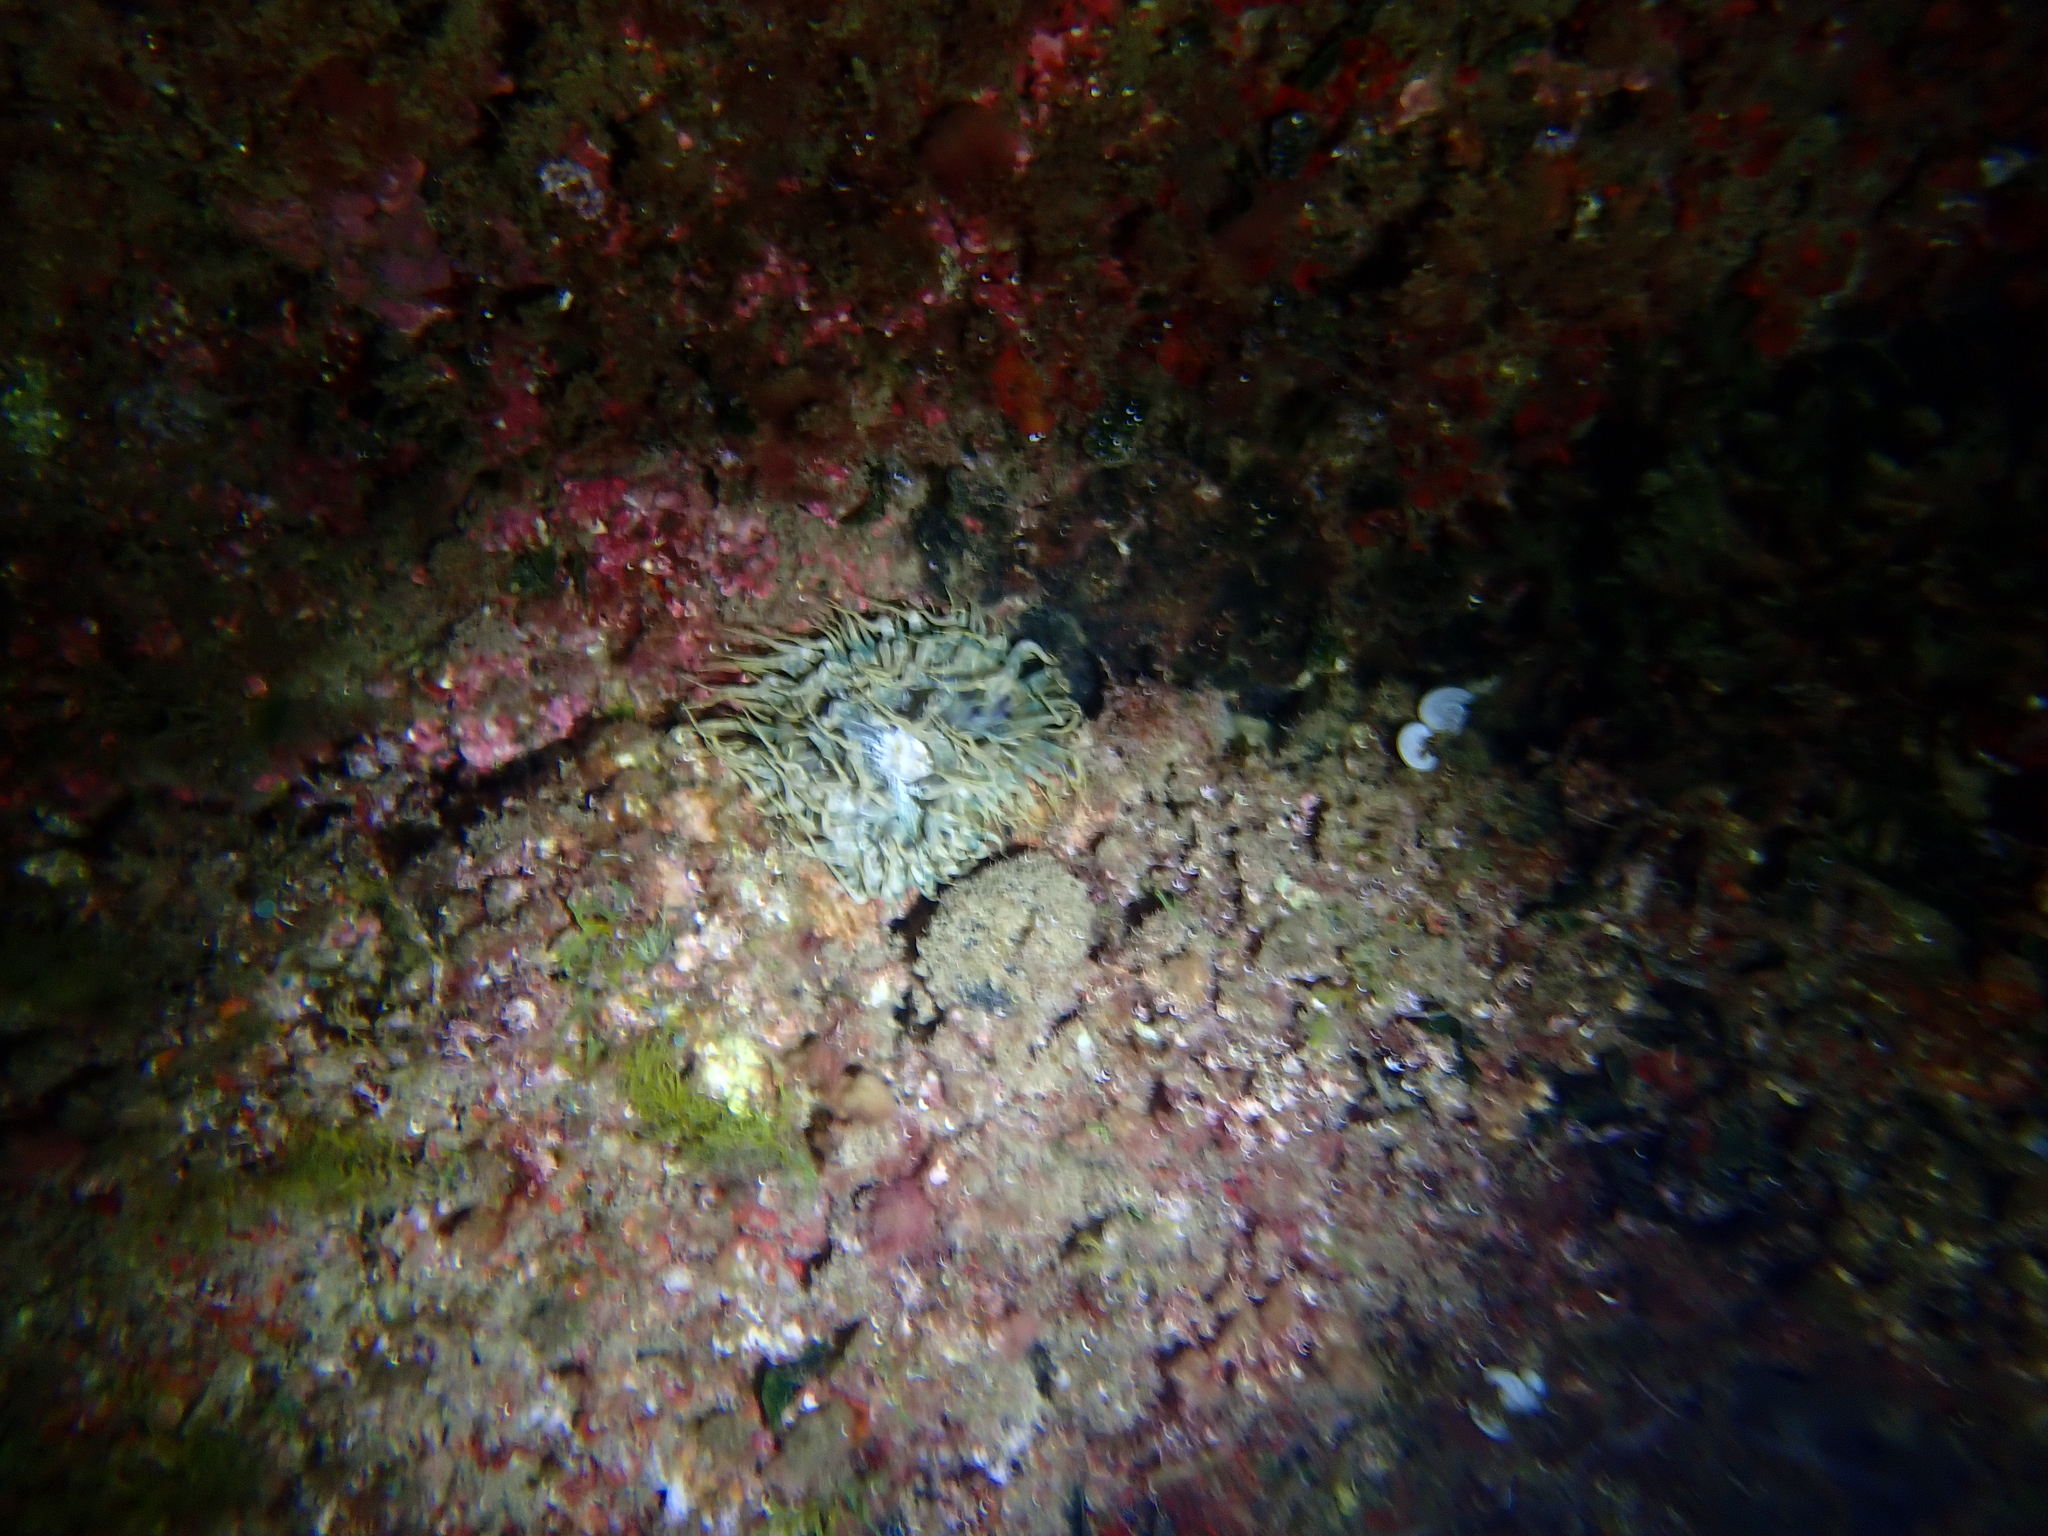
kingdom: Animalia
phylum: Cnidaria
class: Anthozoa
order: Actiniaria
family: Aiptasiidae
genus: Aiptasia
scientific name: Aiptasia mutabilis
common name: Trumpet anemone
